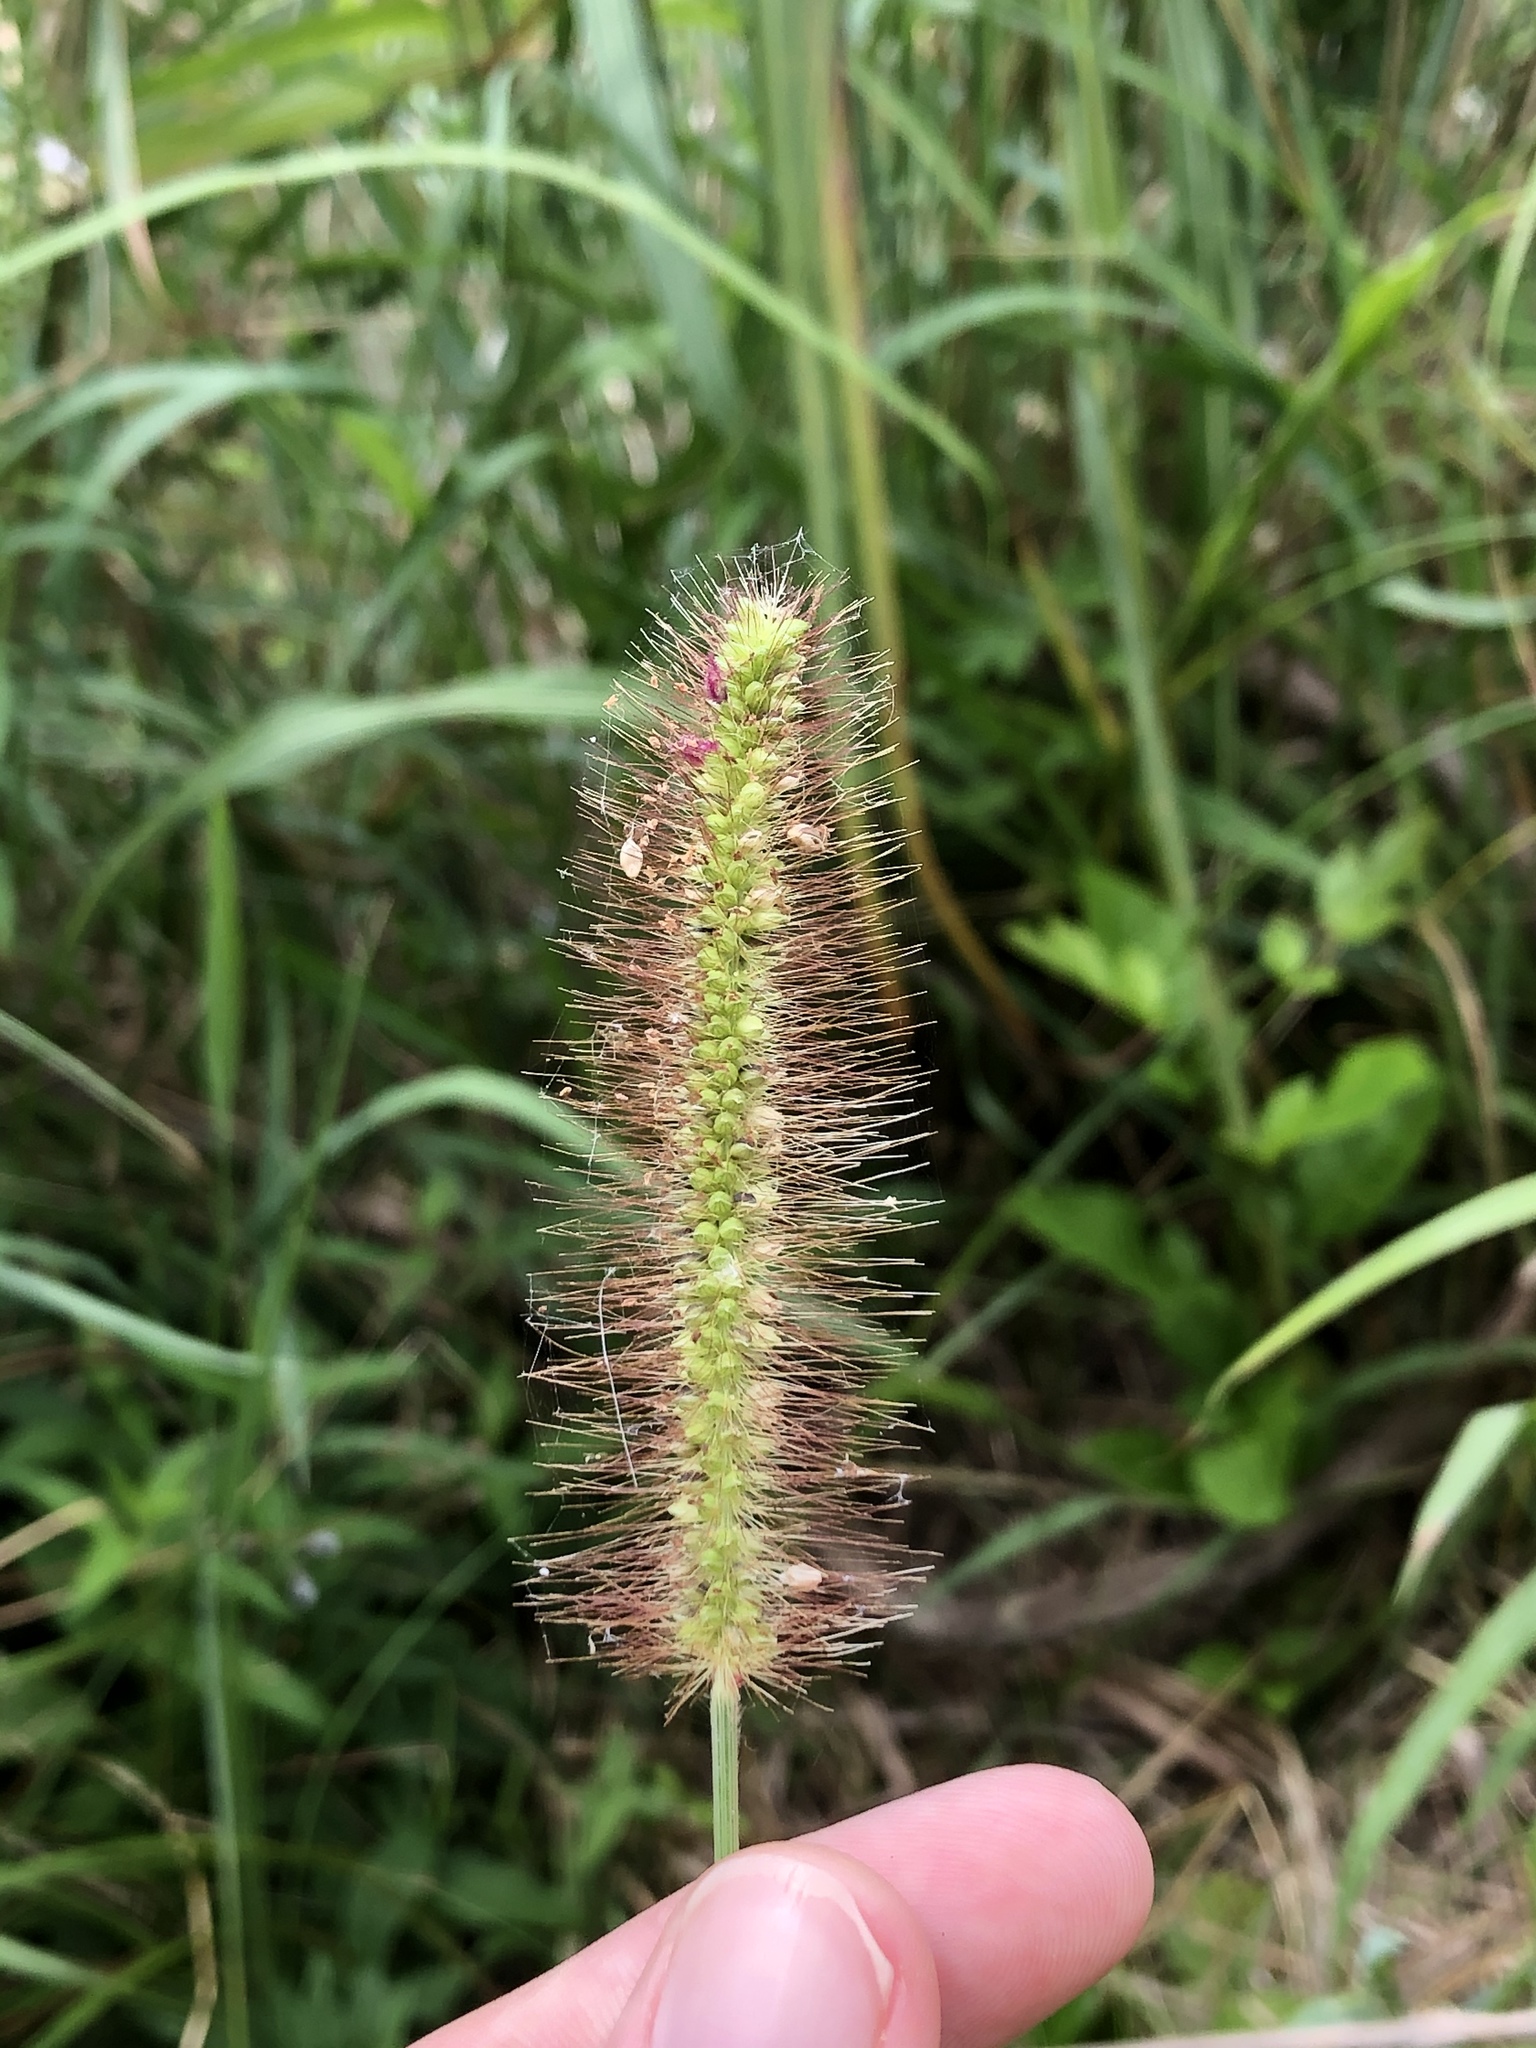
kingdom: Plantae
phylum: Tracheophyta
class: Liliopsida
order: Poales
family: Poaceae
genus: Setaria
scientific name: Setaria parviflora
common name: Knotroot bristle-grass
